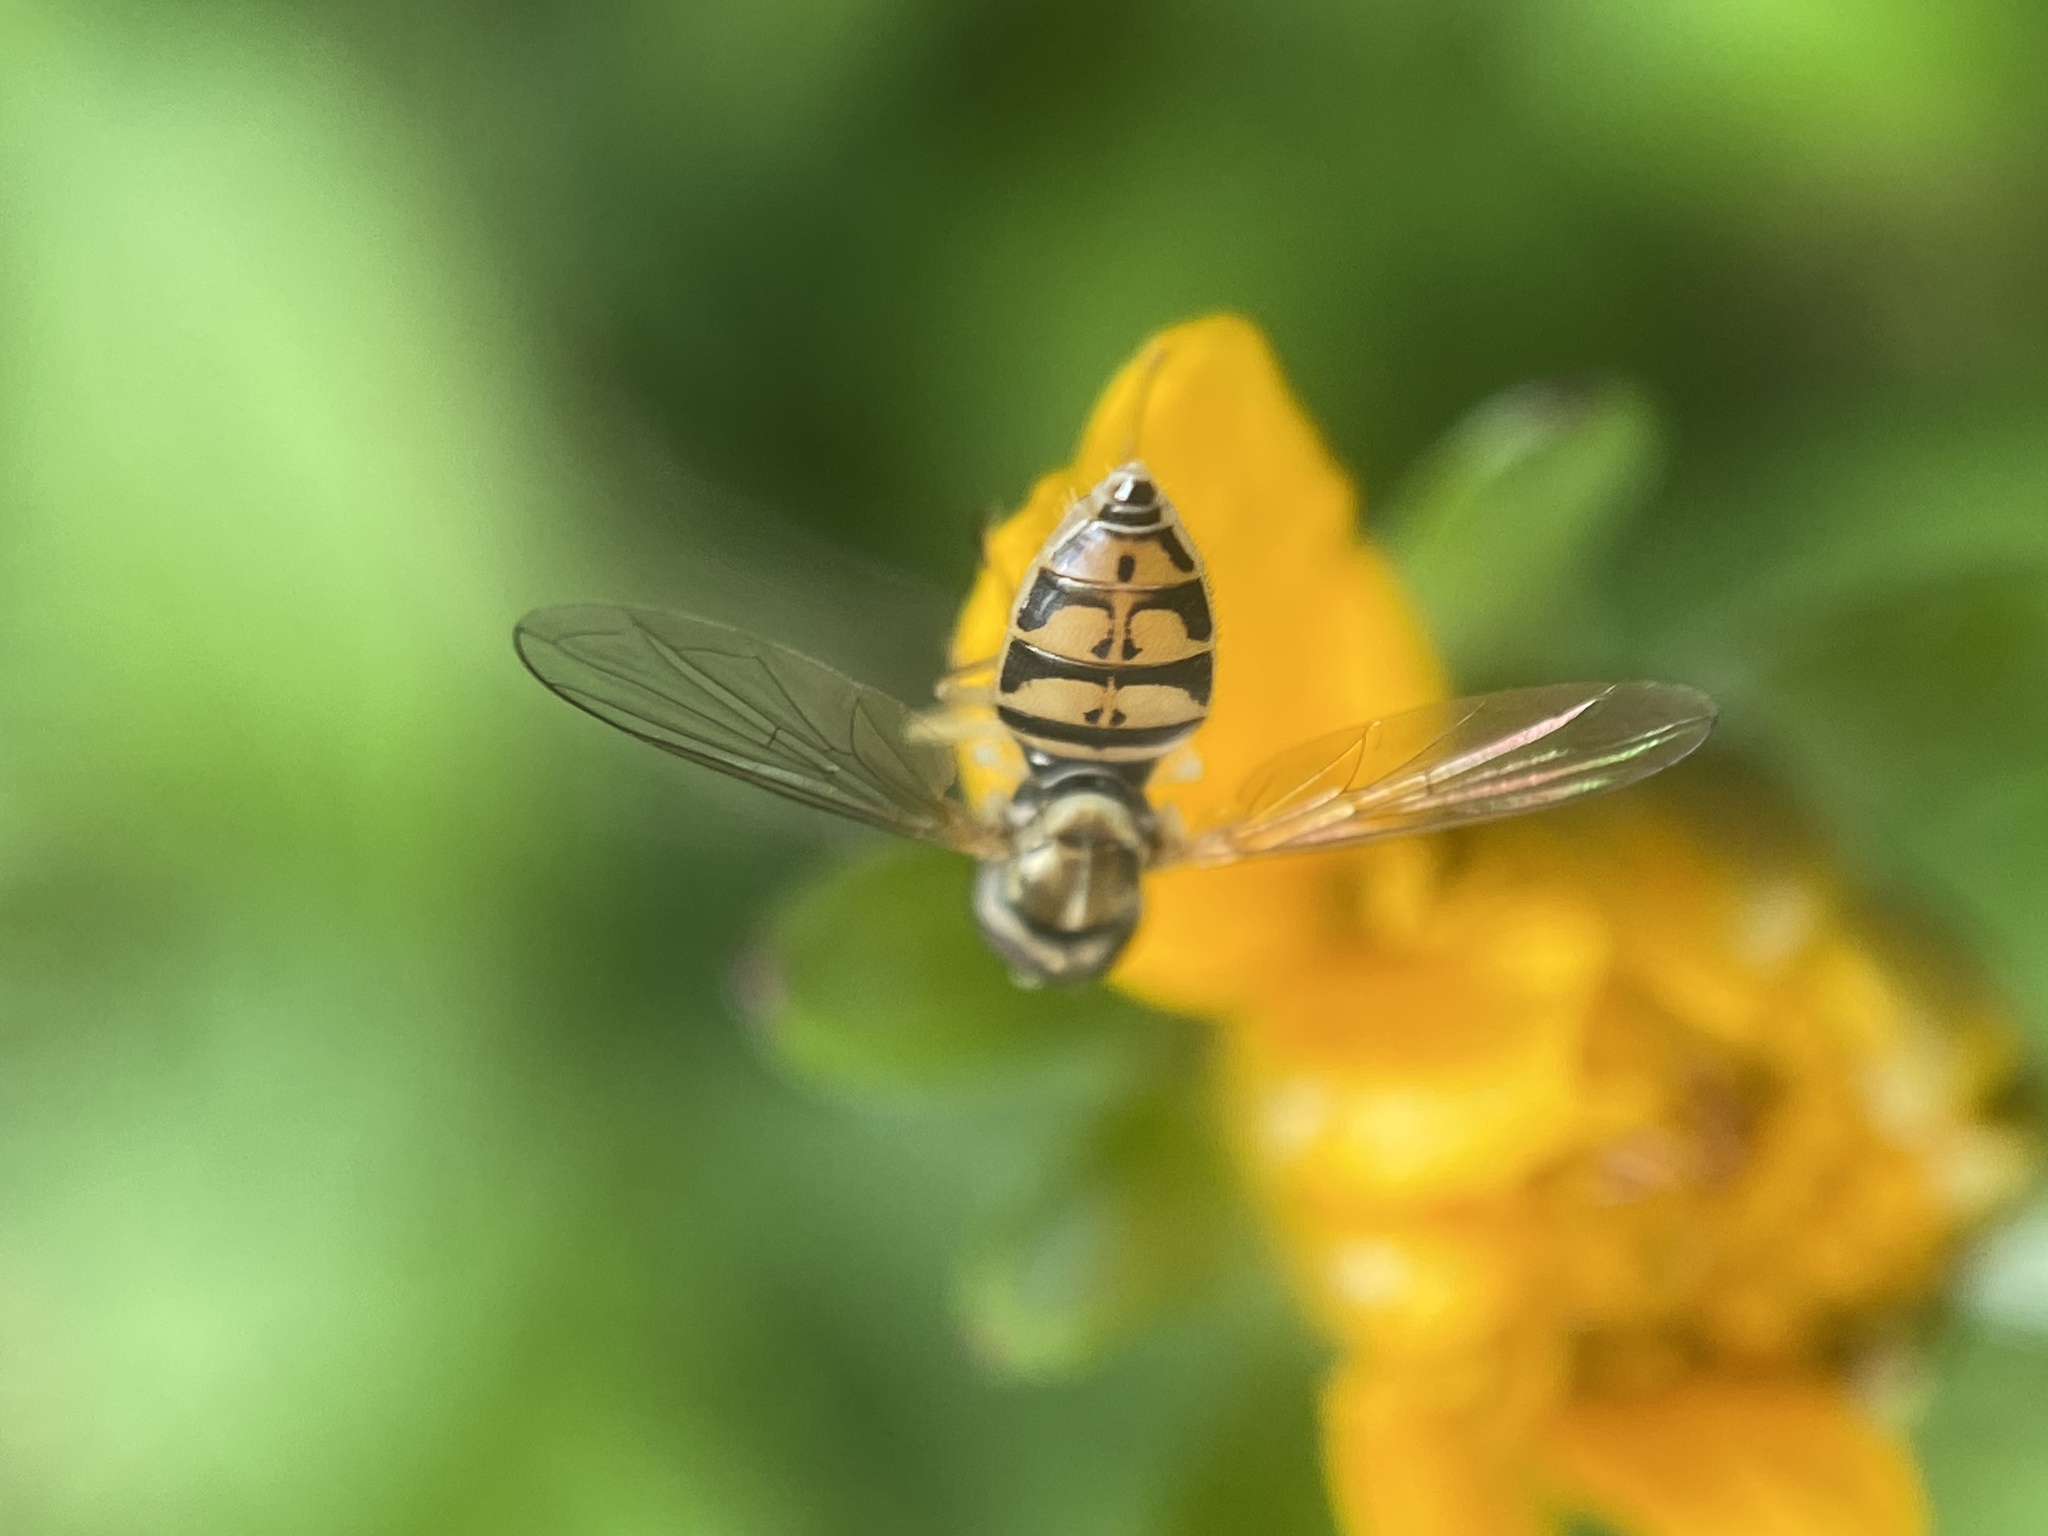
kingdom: Animalia
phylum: Arthropoda
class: Insecta
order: Diptera
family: Syrphidae
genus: Toxomerus
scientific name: Toxomerus marginatus
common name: Syrphid fly
